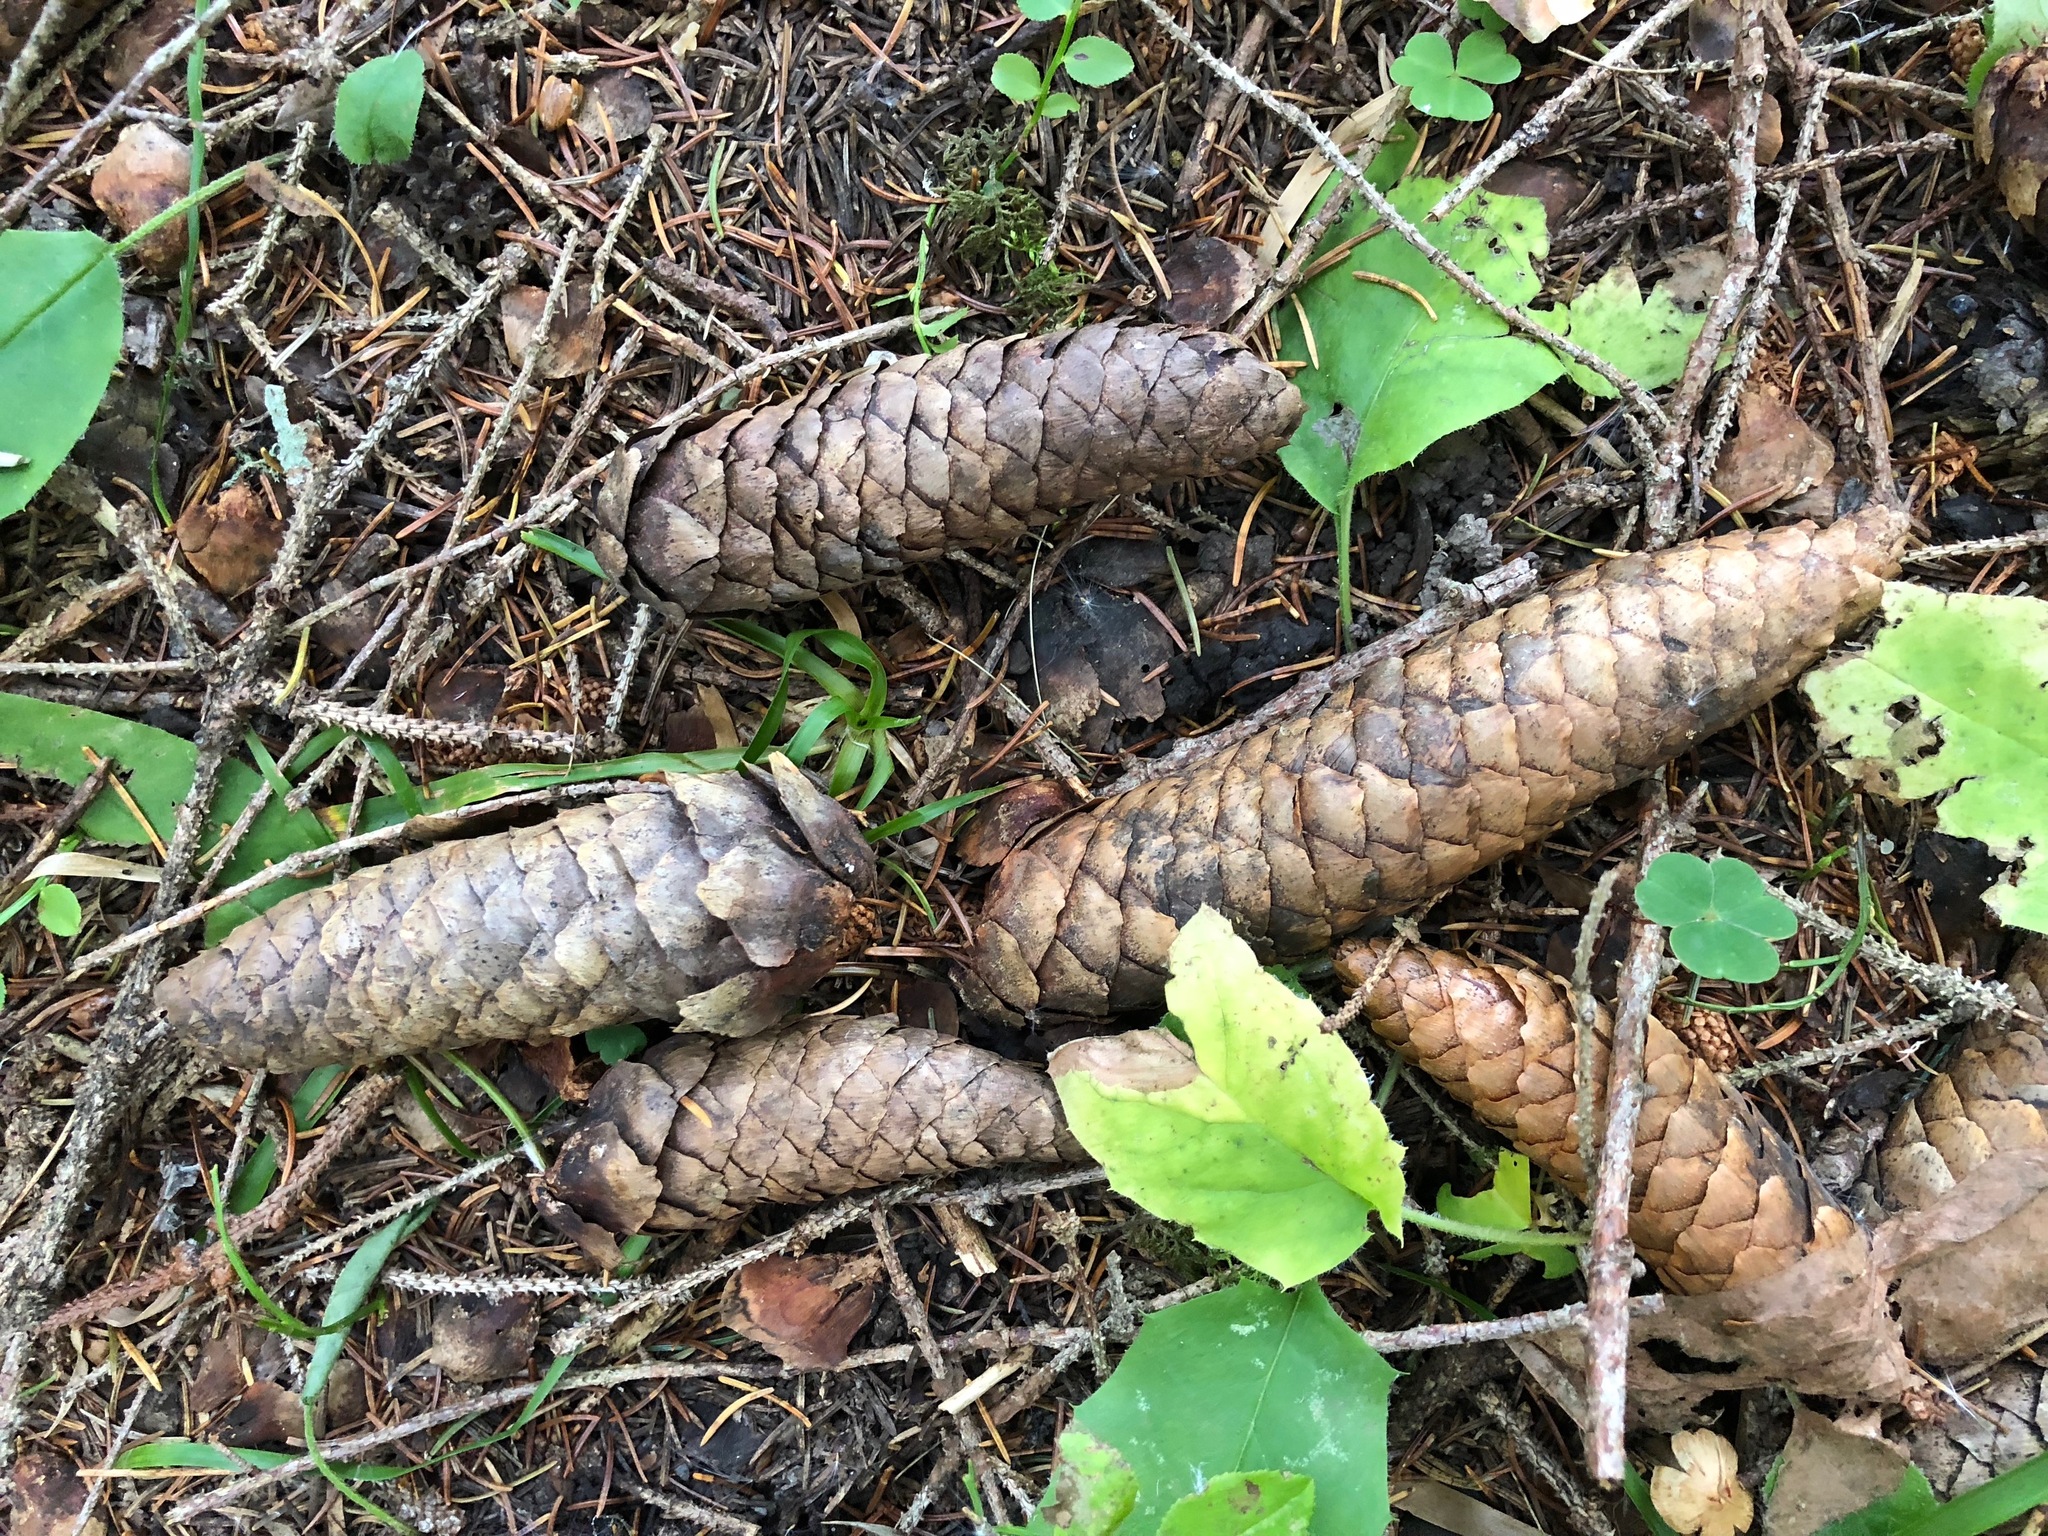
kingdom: Plantae
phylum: Tracheophyta
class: Pinopsida
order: Pinales
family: Pinaceae
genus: Picea
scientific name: Picea abies
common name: Norway spruce
